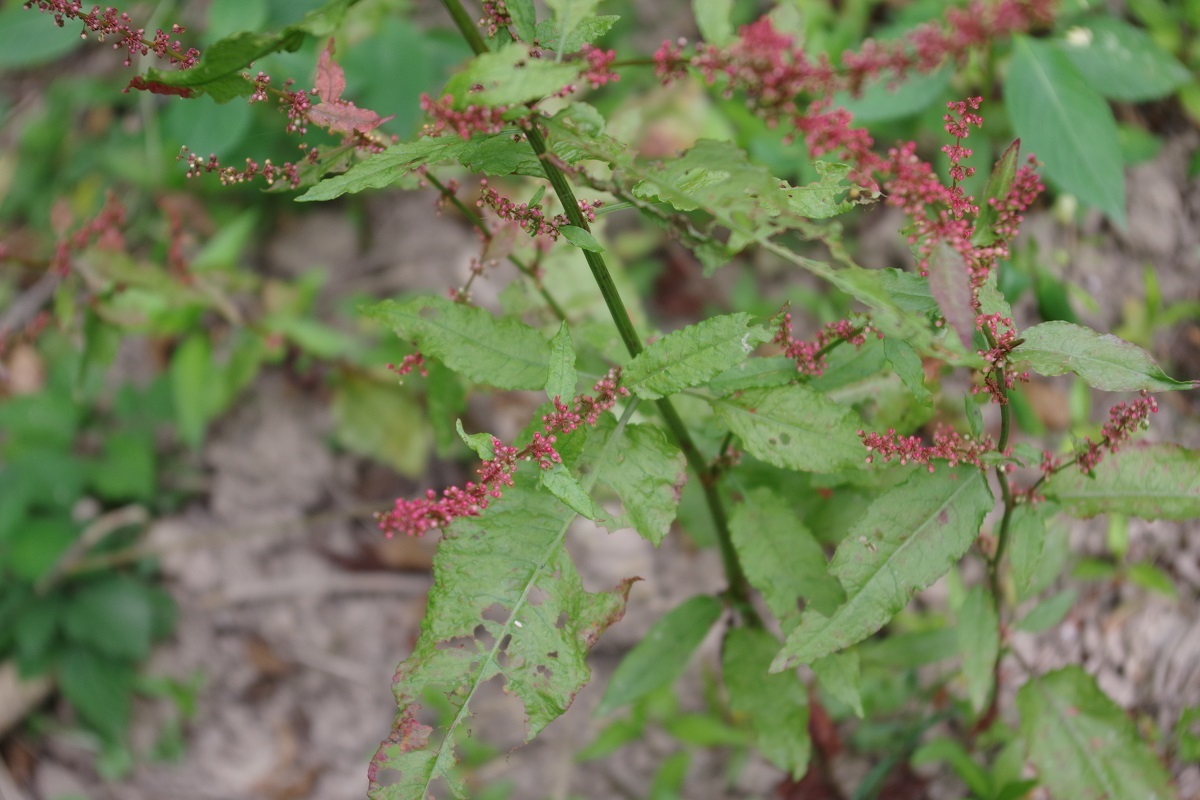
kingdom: Plantae
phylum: Tracheophyta
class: Magnoliopsida
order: Caryophyllales
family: Polygonaceae
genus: Rumex
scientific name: Rumex sanguineus
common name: Wood dock
